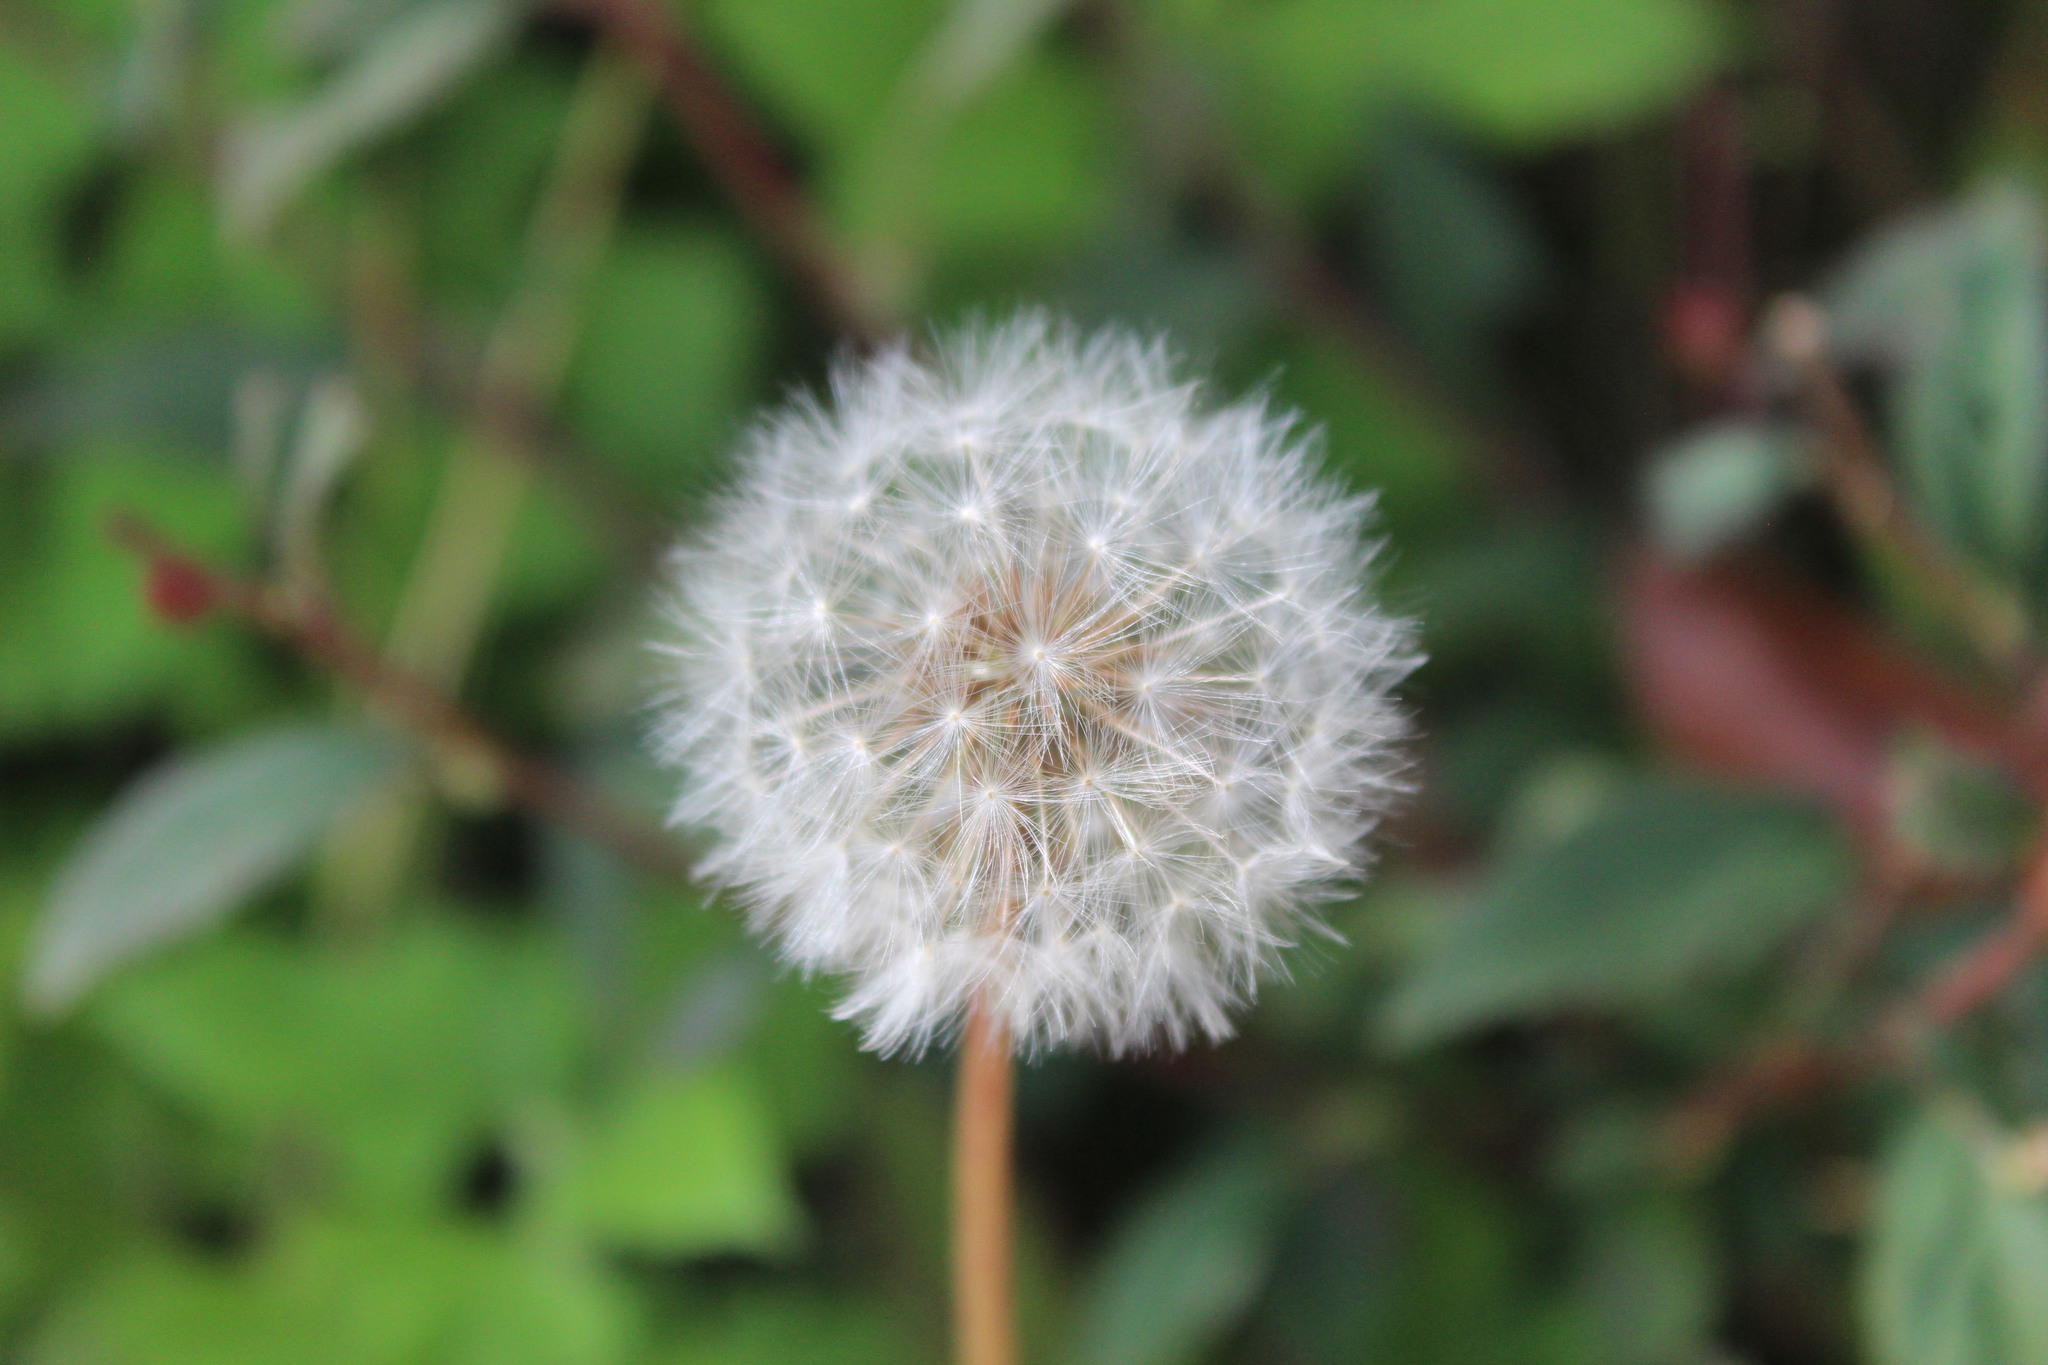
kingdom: Plantae
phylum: Tracheophyta
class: Magnoliopsida
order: Asterales
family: Asteraceae
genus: Taraxacum
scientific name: Taraxacum officinale
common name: Common dandelion
